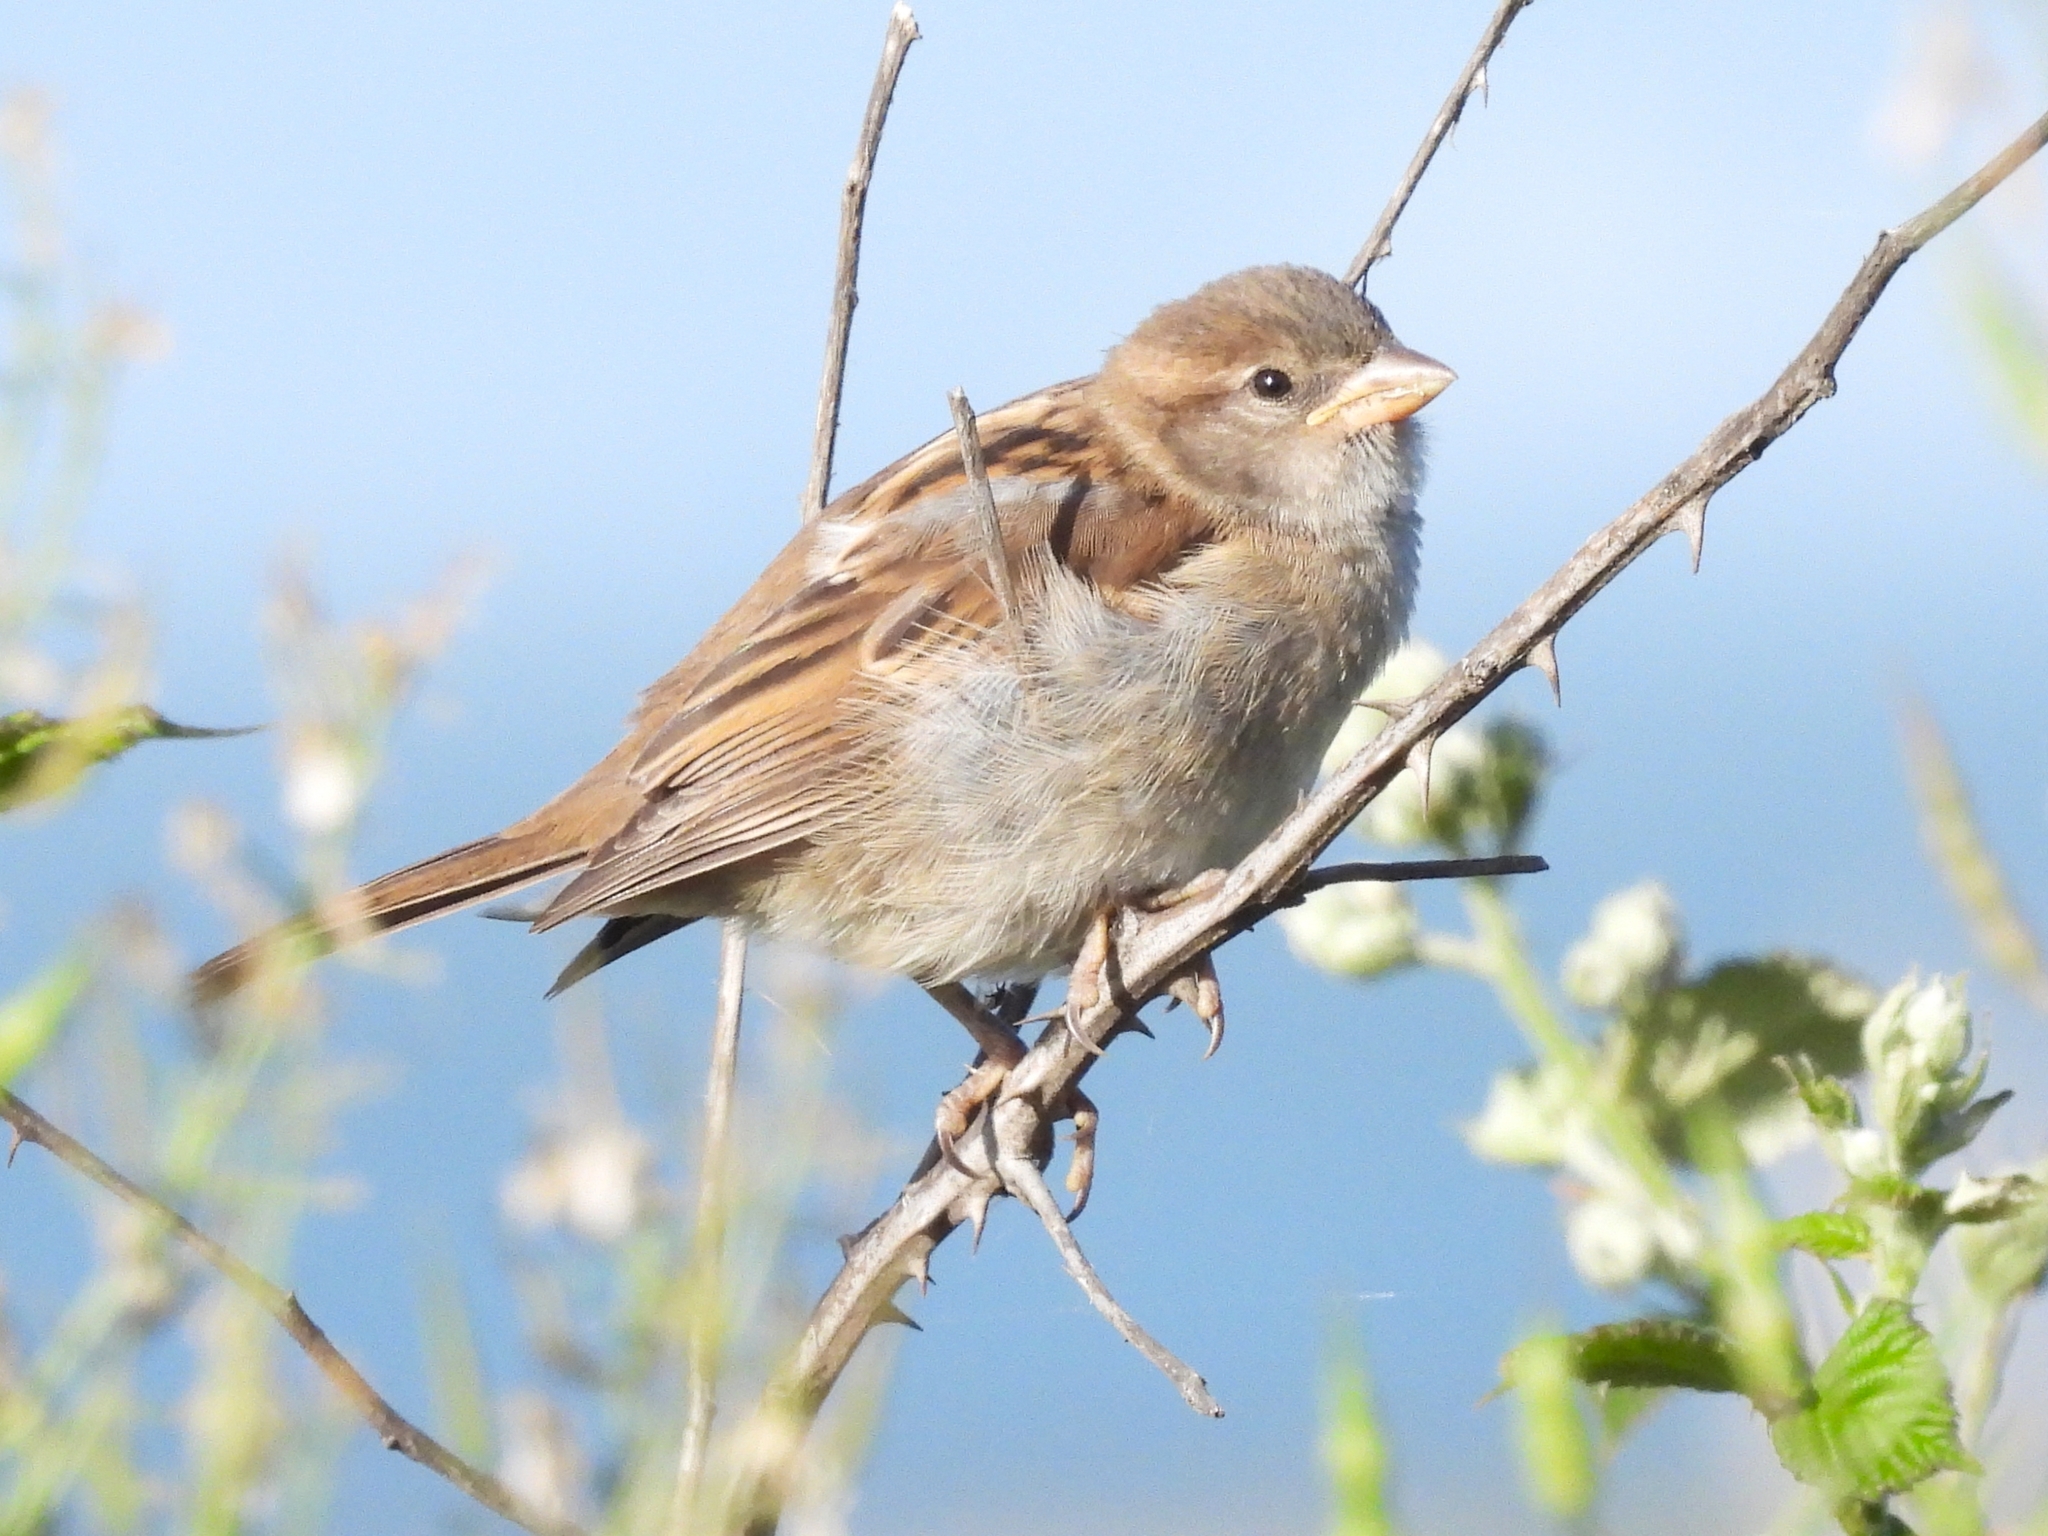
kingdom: Animalia
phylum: Chordata
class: Aves
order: Passeriformes
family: Passeridae
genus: Passer
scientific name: Passer domesticus
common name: House sparrow
